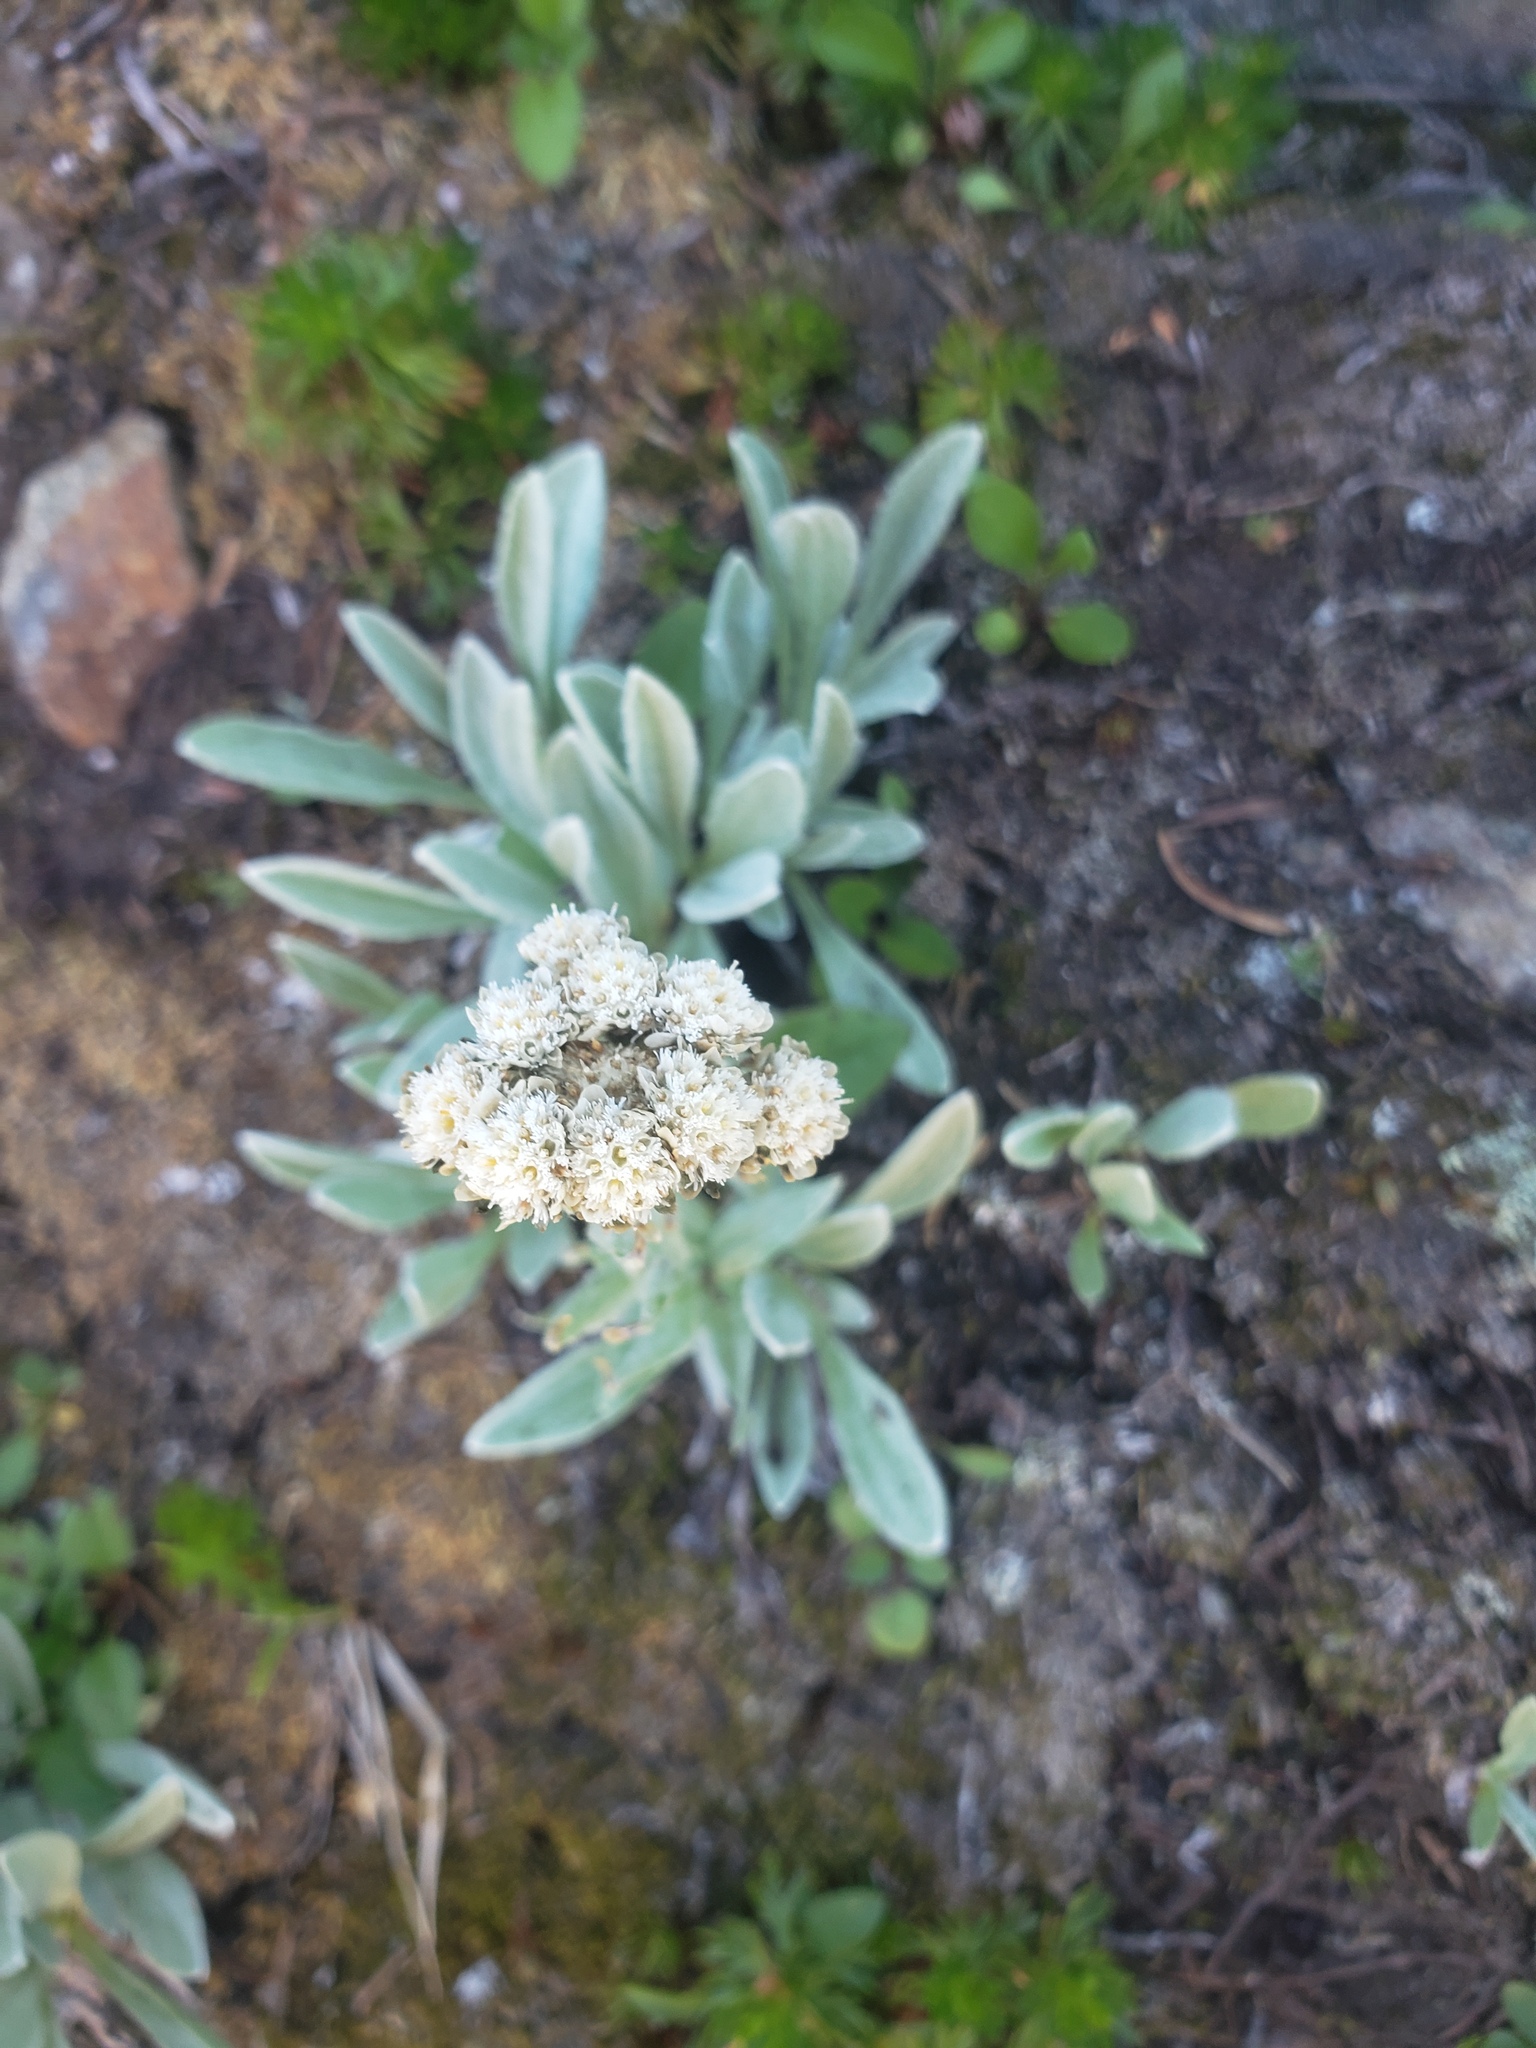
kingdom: Plantae
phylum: Tracheophyta
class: Magnoliopsida
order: Asterales
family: Asteraceae
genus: Antennaria
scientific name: Antennaria lanata
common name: Woolly pussytoes
